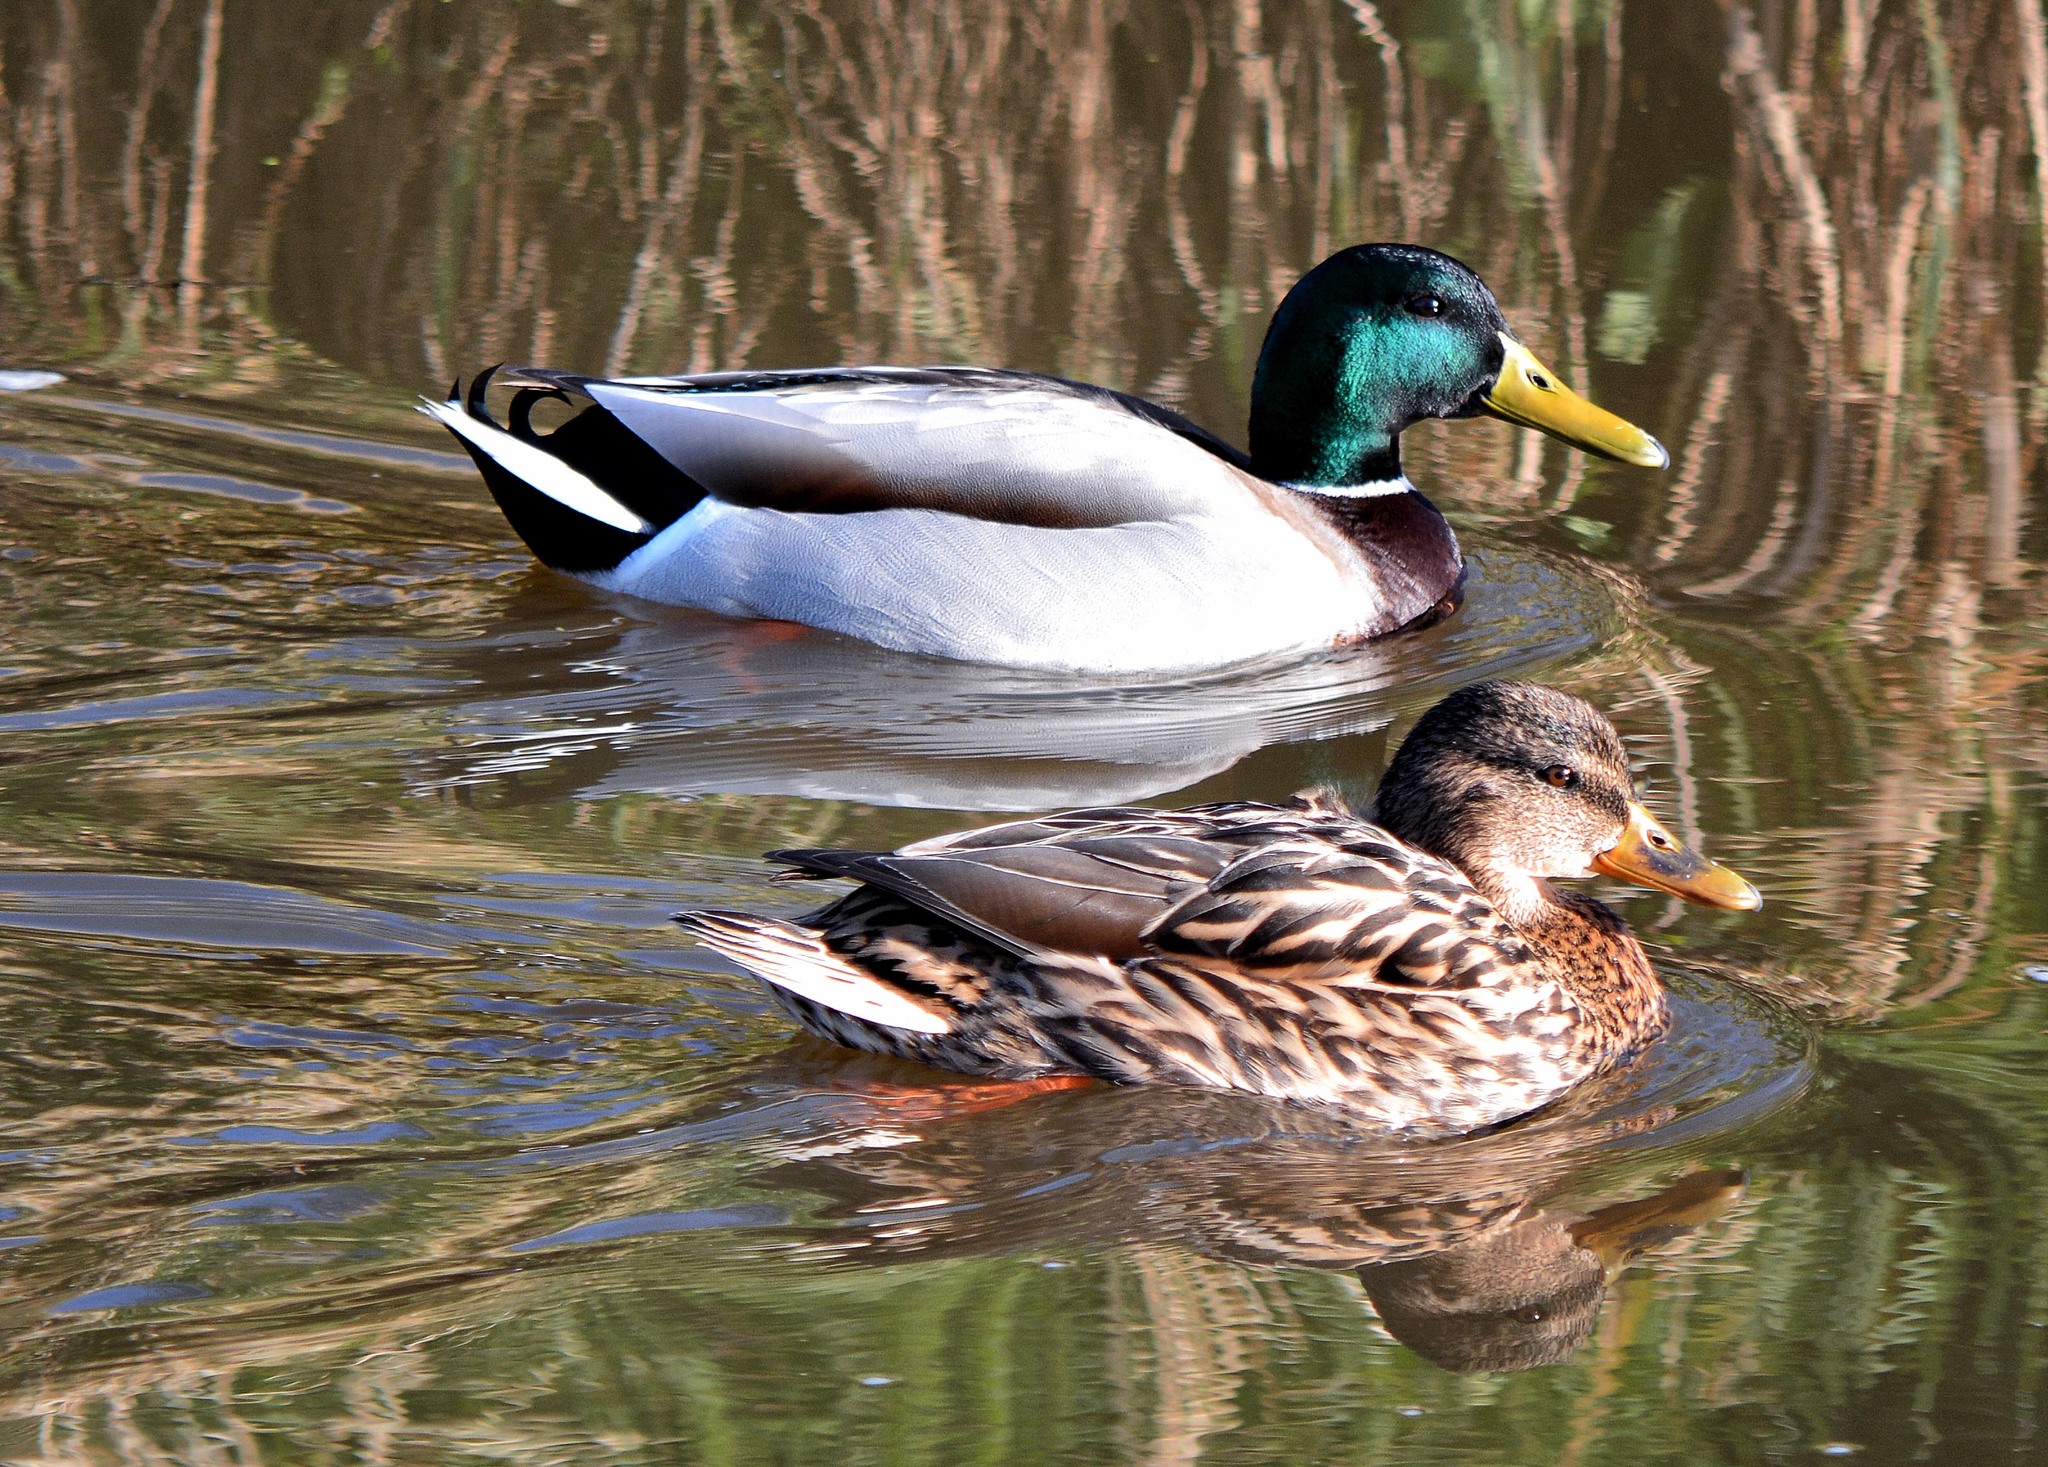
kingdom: Animalia
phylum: Chordata
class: Aves
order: Anseriformes
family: Anatidae
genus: Anas
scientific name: Anas platyrhynchos
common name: Mallard
